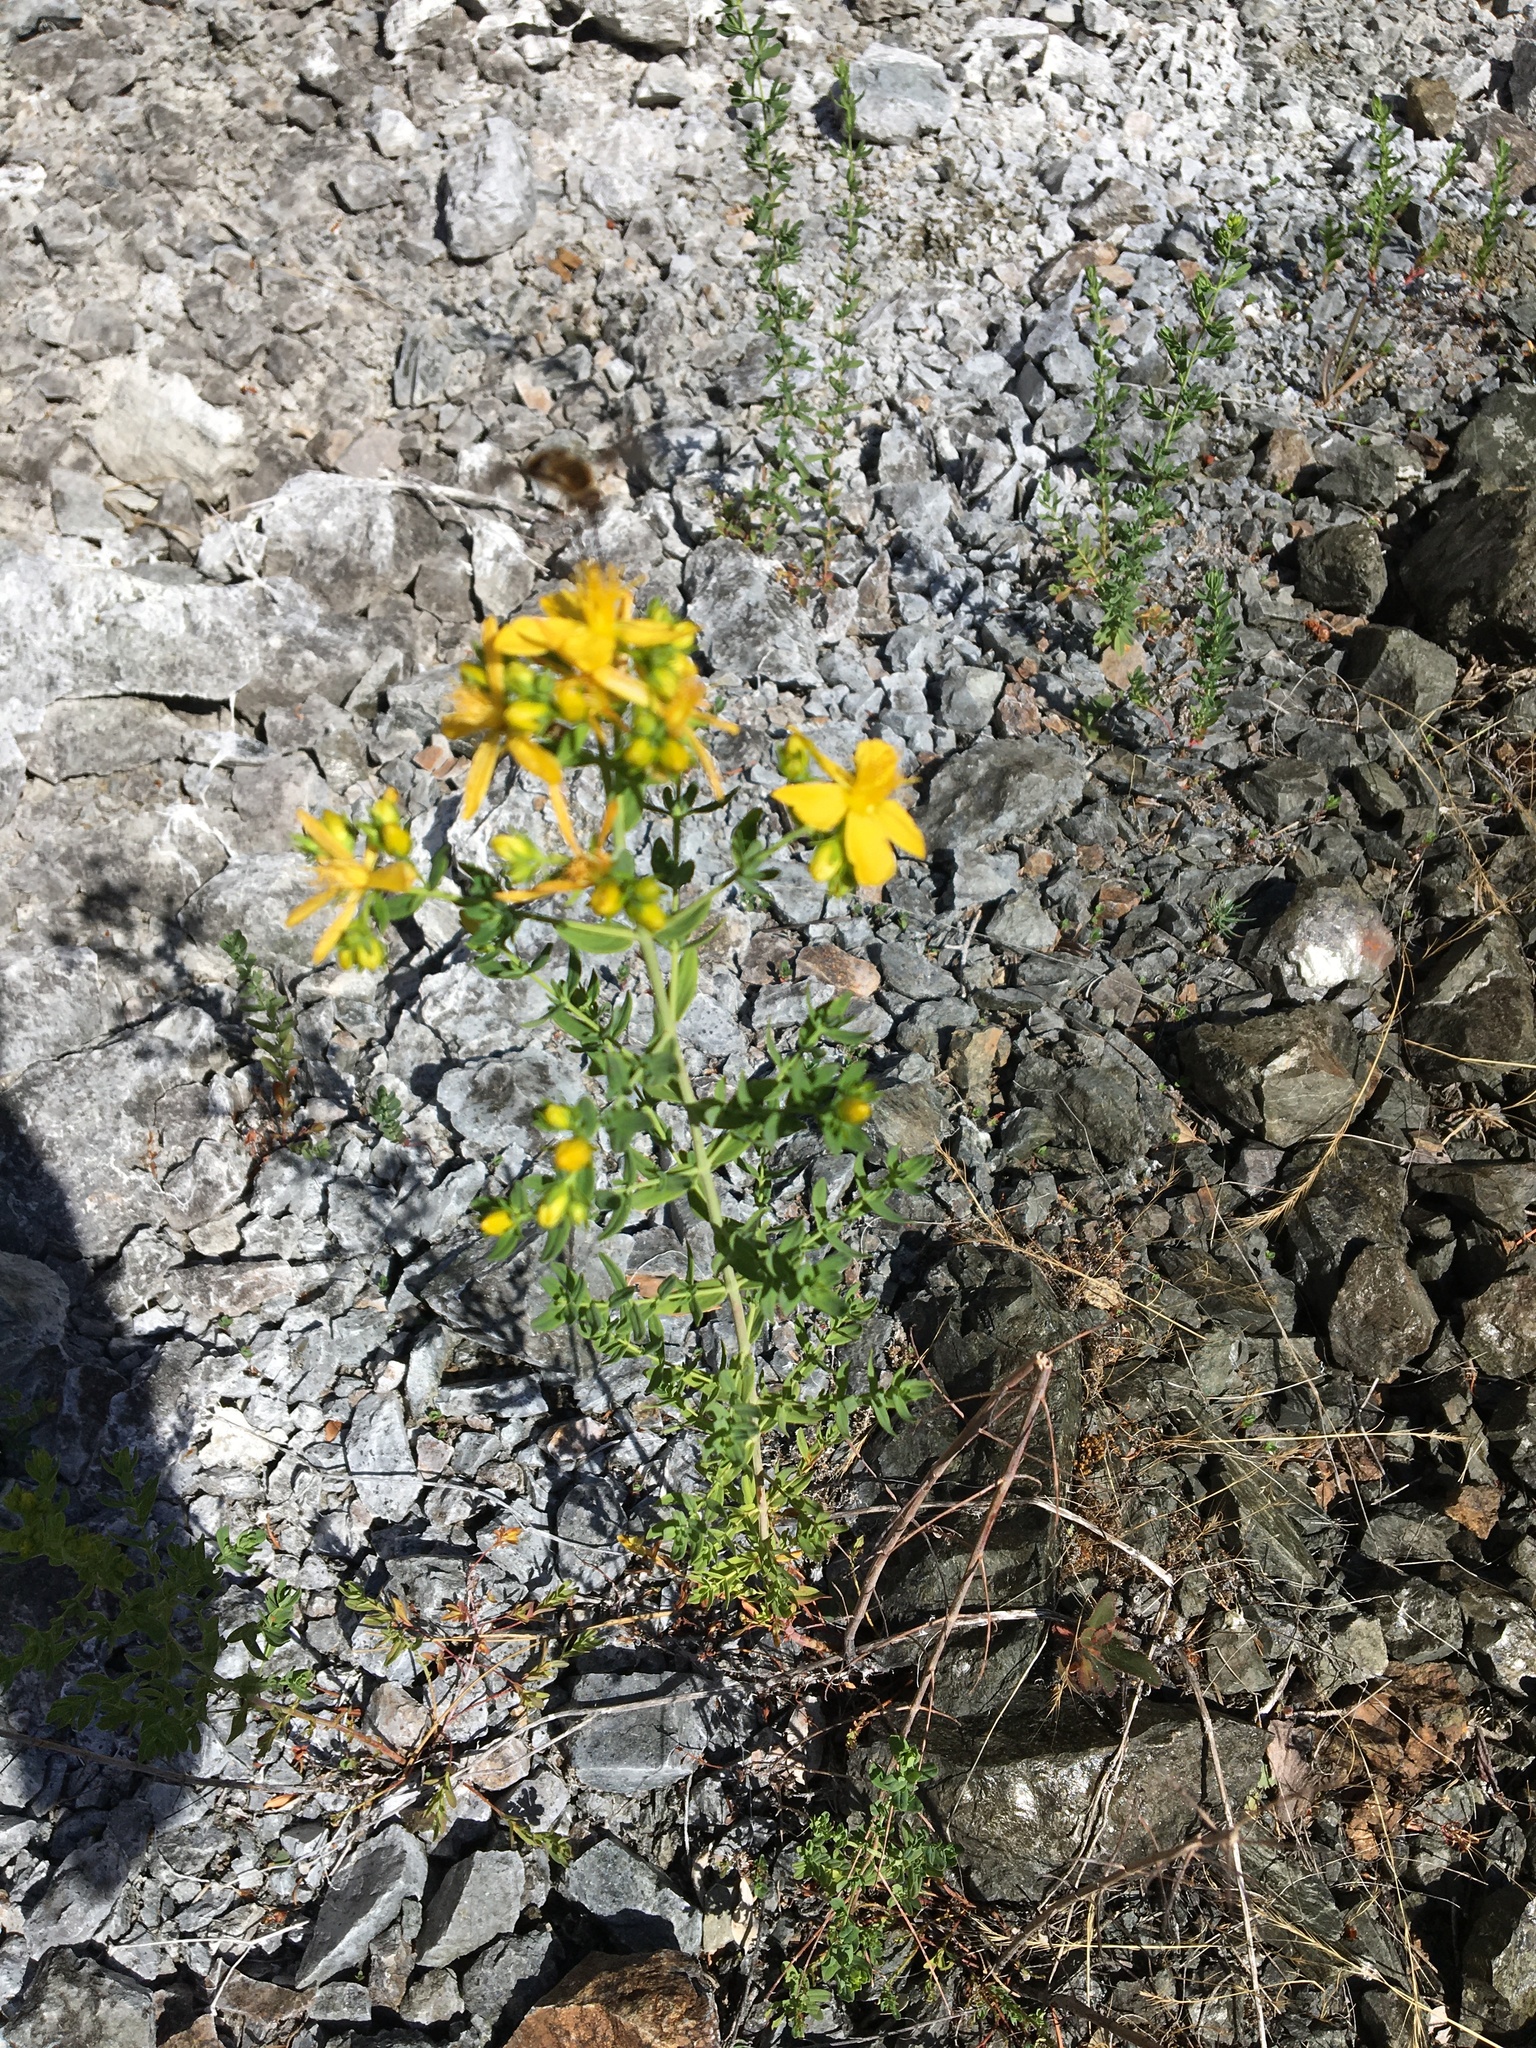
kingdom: Plantae
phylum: Tracheophyta
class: Magnoliopsida
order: Malpighiales
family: Hypericaceae
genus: Hypericum
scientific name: Hypericum perforatum
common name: Common st. johnswort
